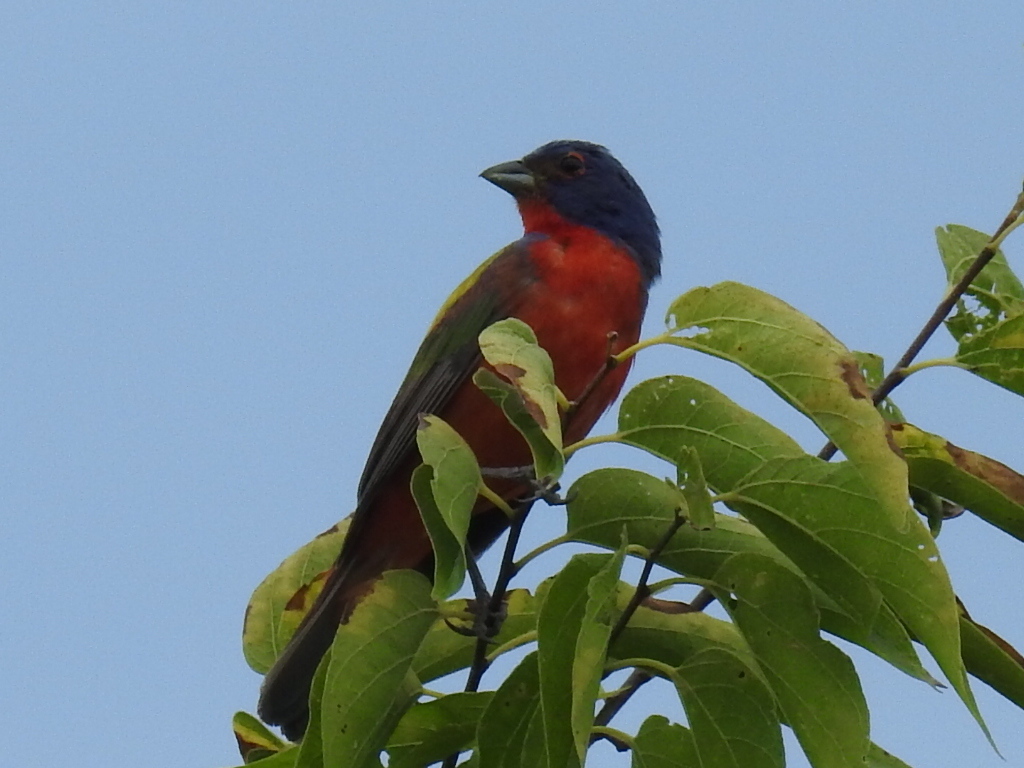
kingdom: Animalia
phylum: Chordata
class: Aves
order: Passeriformes
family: Cardinalidae
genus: Passerina
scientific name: Passerina ciris
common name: Painted bunting
